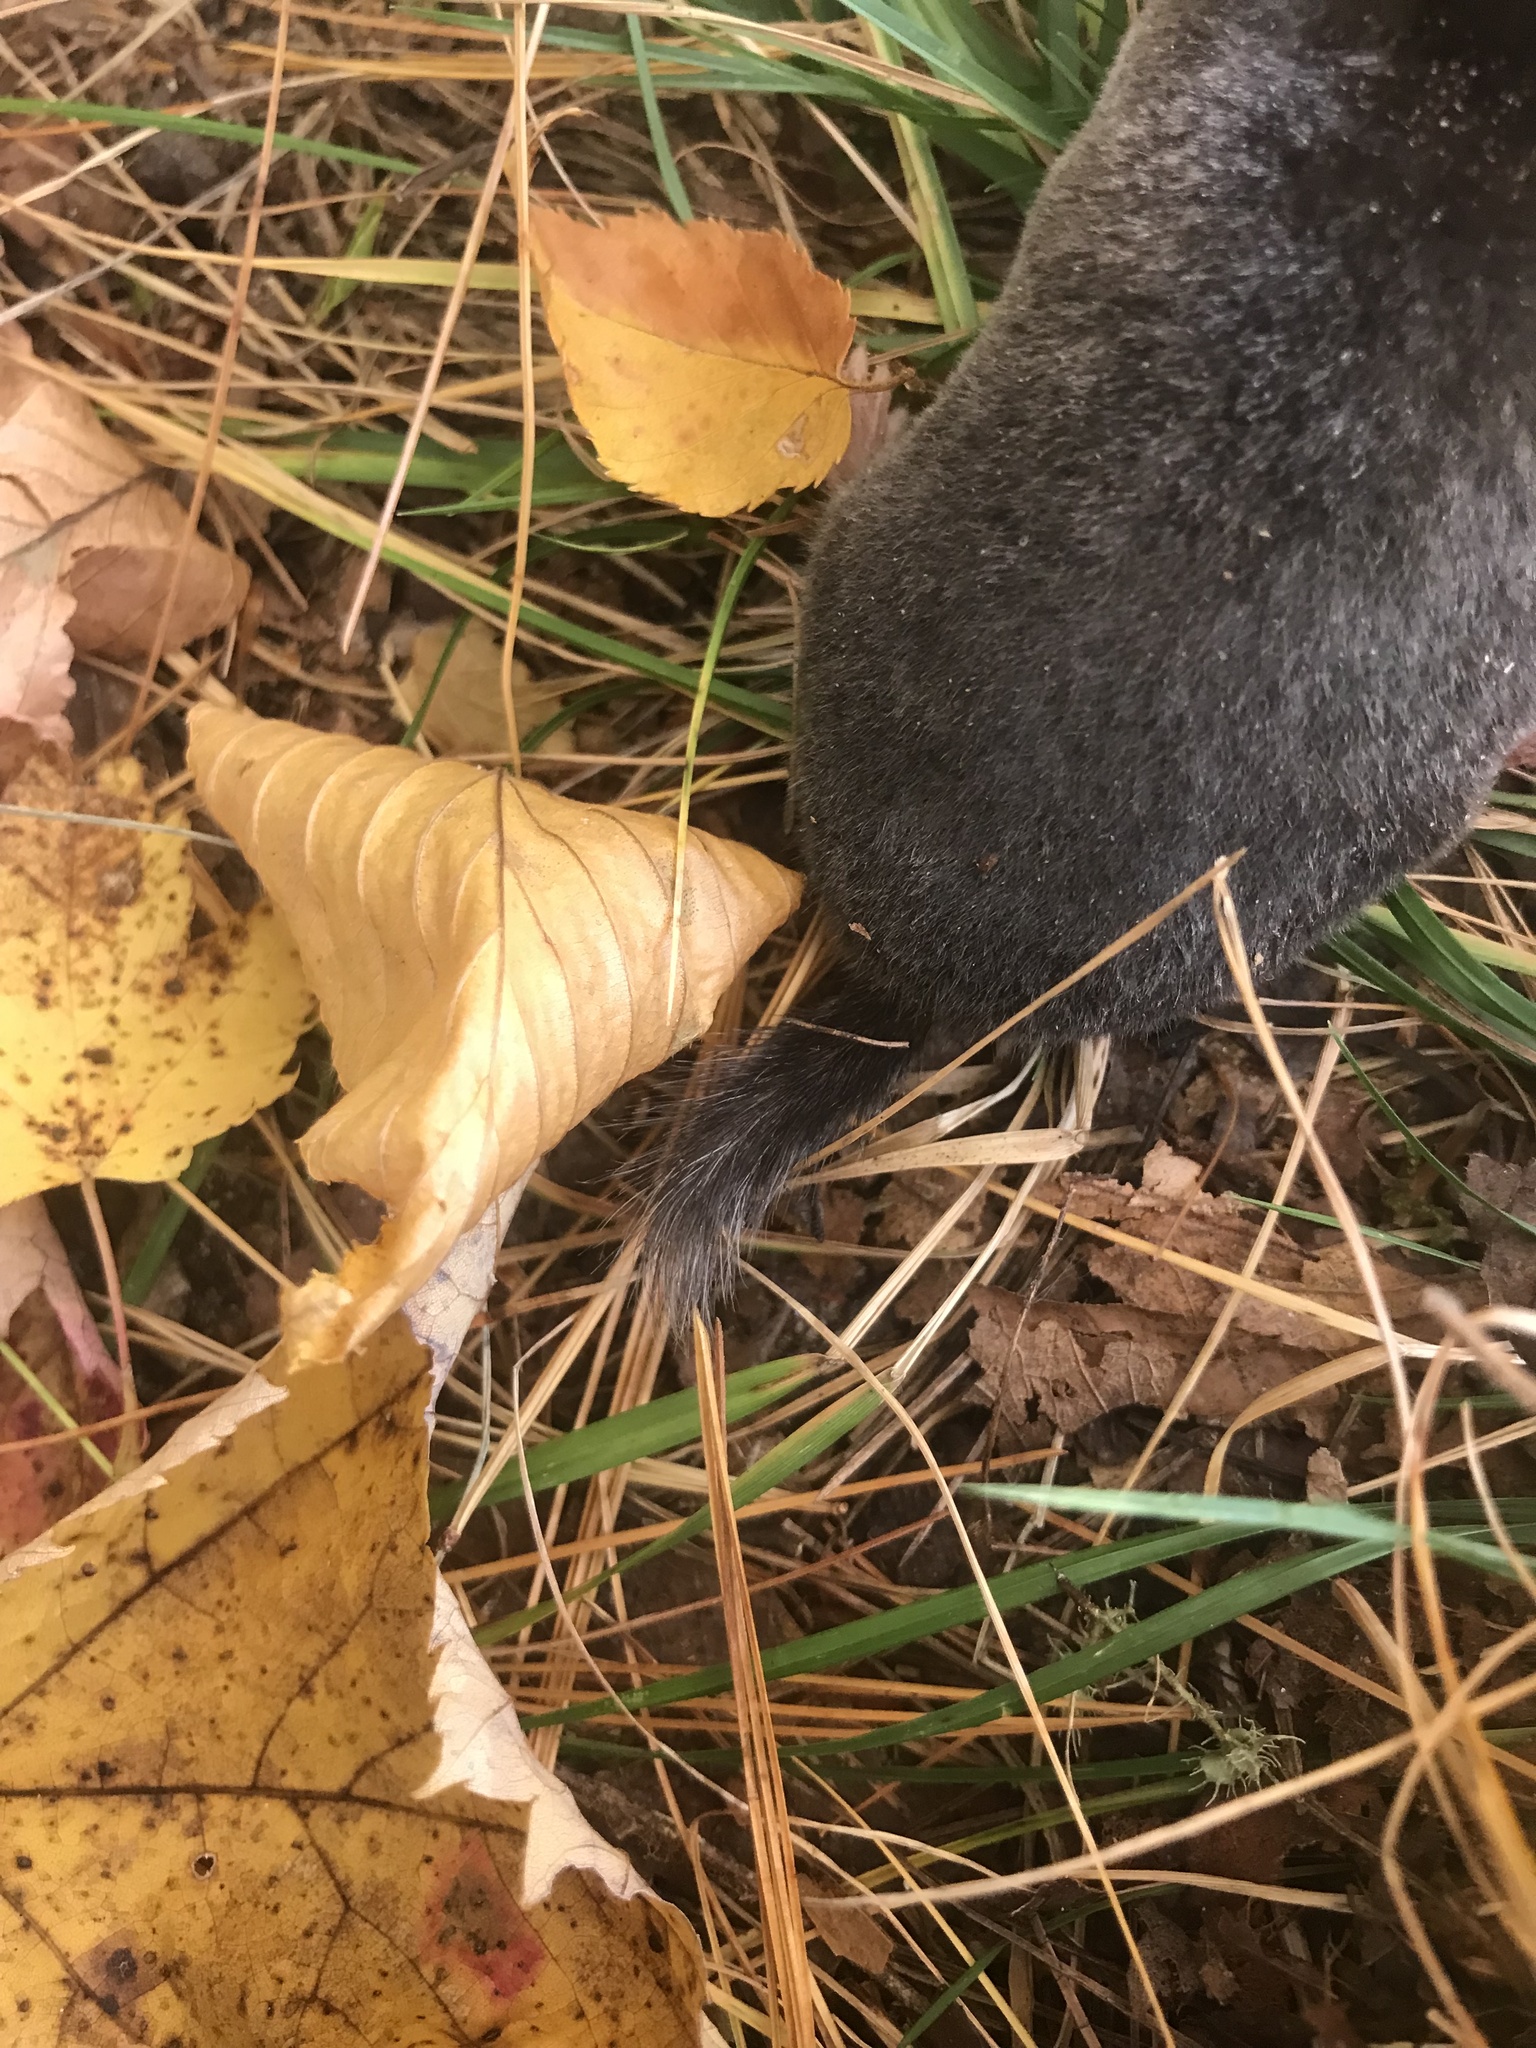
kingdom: Animalia
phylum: Chordata
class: Mammalia
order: Soricomorpha
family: Talpidae
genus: Parascalops
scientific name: Parascalops breweri
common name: Hairy-tailed mole
